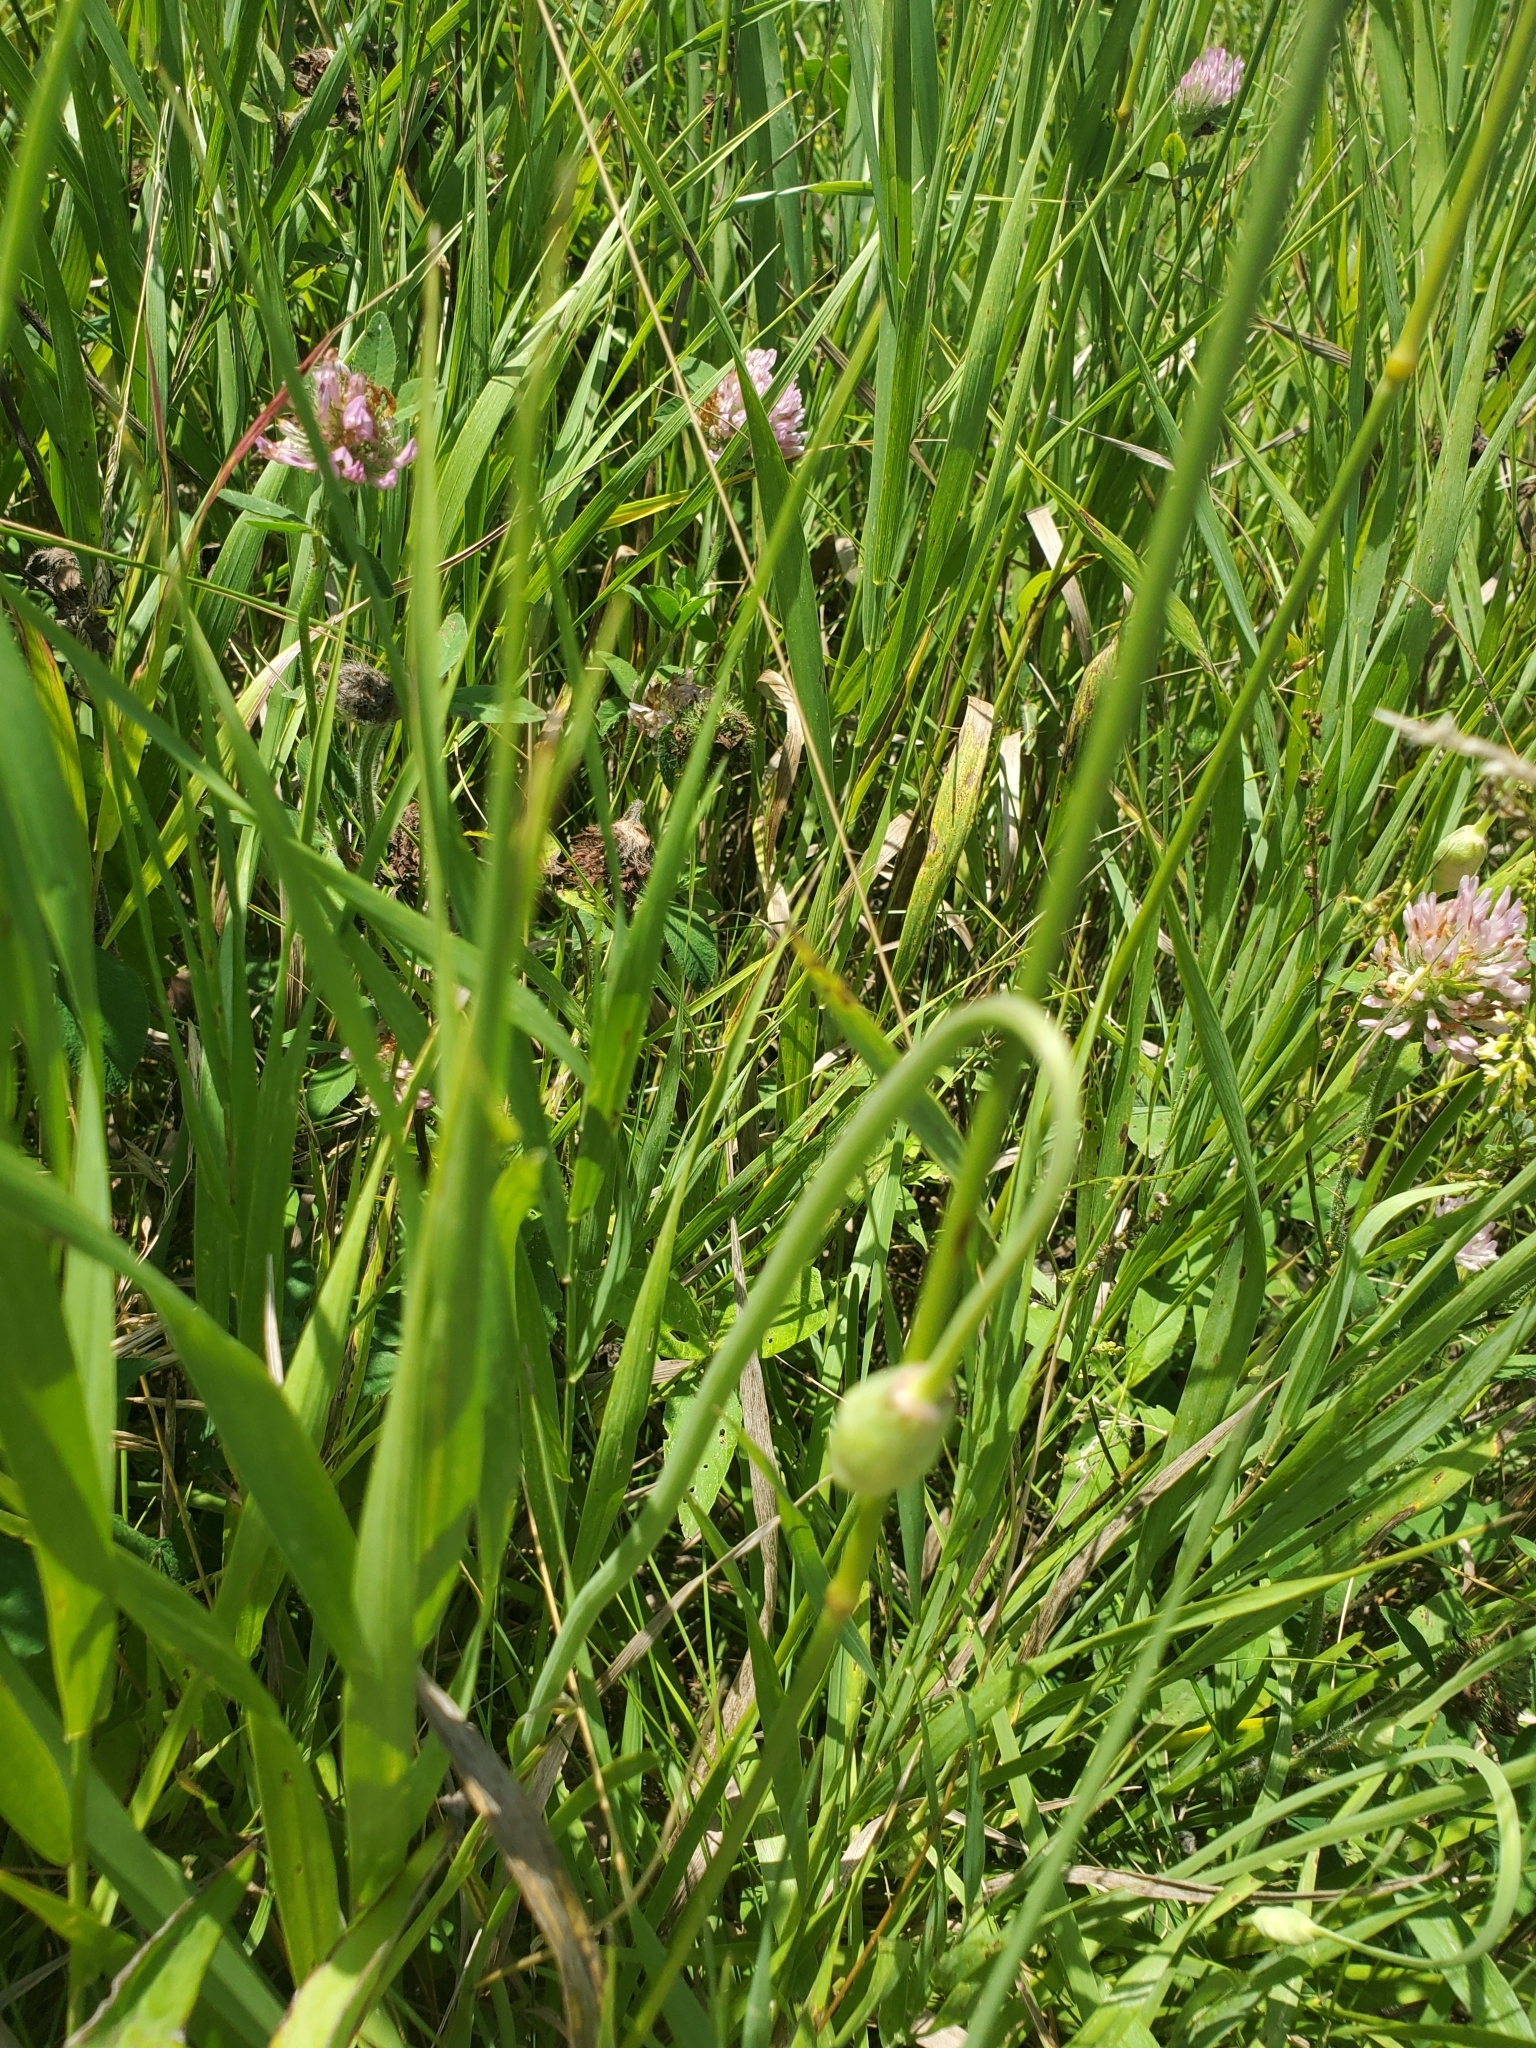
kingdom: Plantae
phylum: Tracheophyta
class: Liliopsida
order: Asparagales
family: Amaryllidaceae
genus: Allium
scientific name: Allium cernuum
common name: Nodding onion
